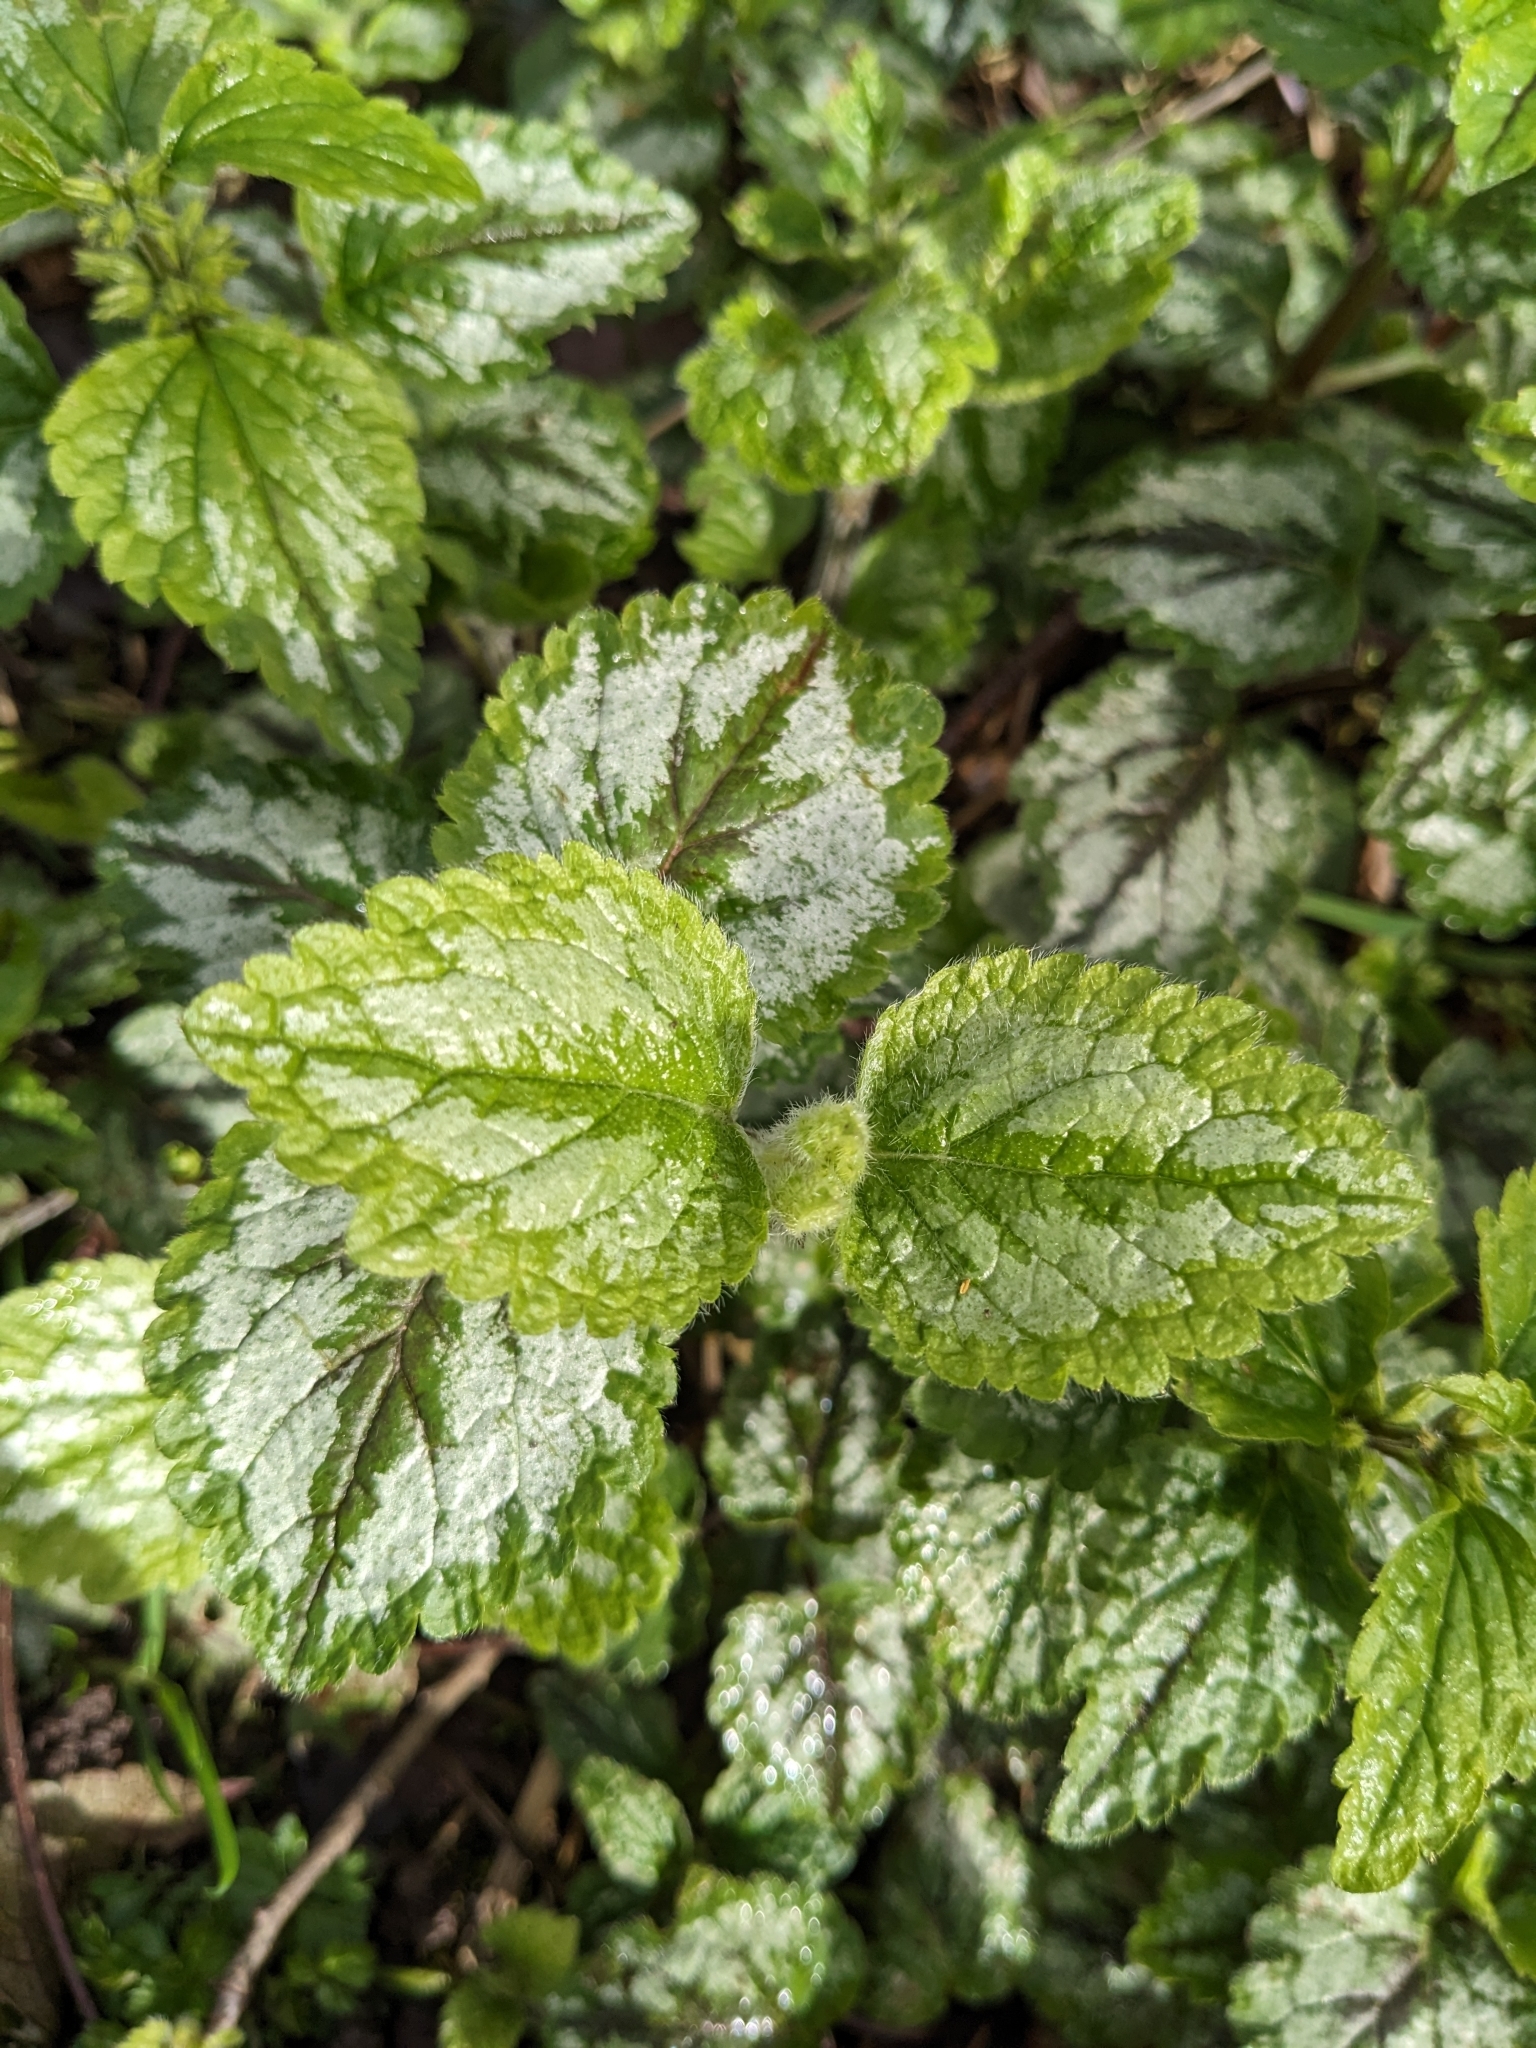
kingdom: Plantae
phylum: Tracheophyta
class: Magnoliopsida
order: Lamiales
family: Lamiaceae
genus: Lamium
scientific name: Lamium galeobdolon
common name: Yellow archangel
